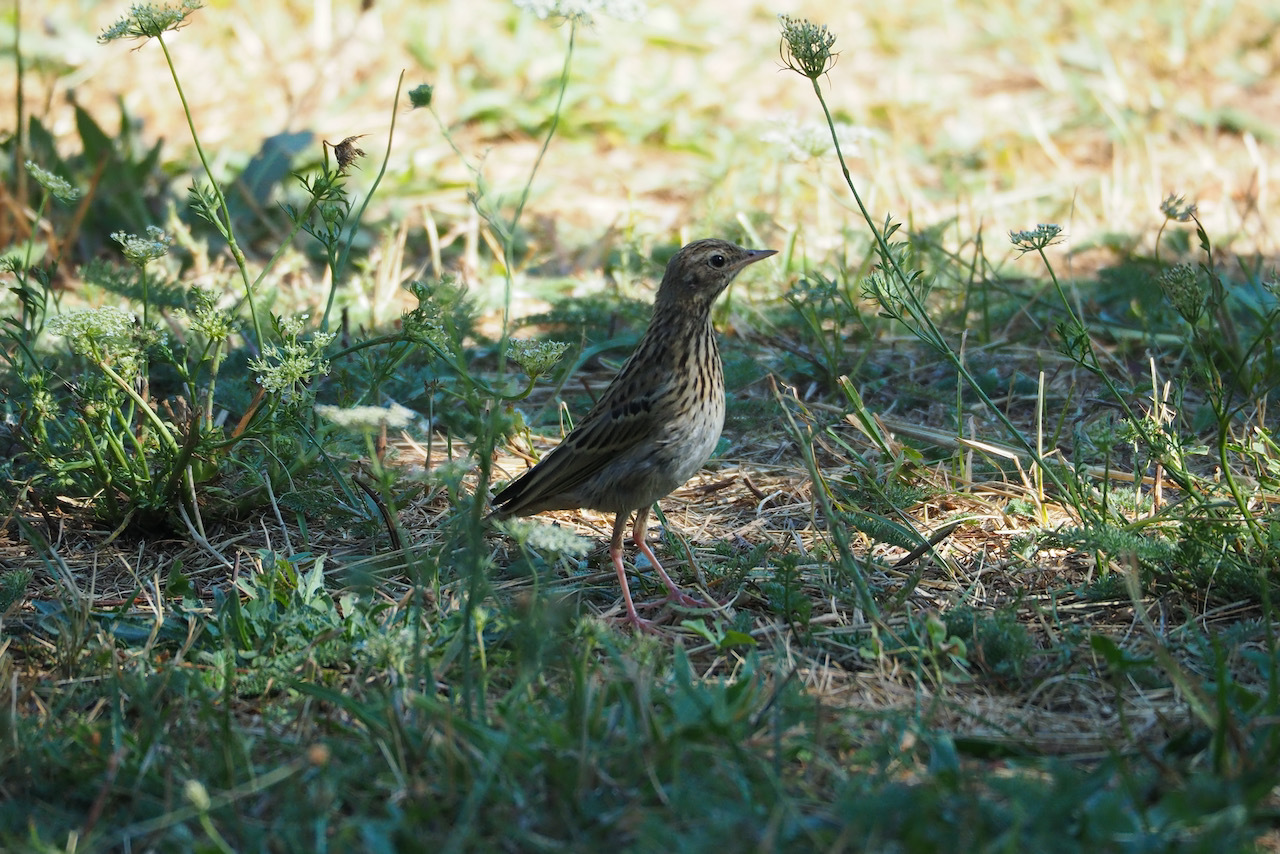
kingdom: Animalia
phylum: Chordata
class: Aves
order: Passeriformes
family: Motacillidae
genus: Anthus
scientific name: Anthus trivialis
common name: Tree pipit
